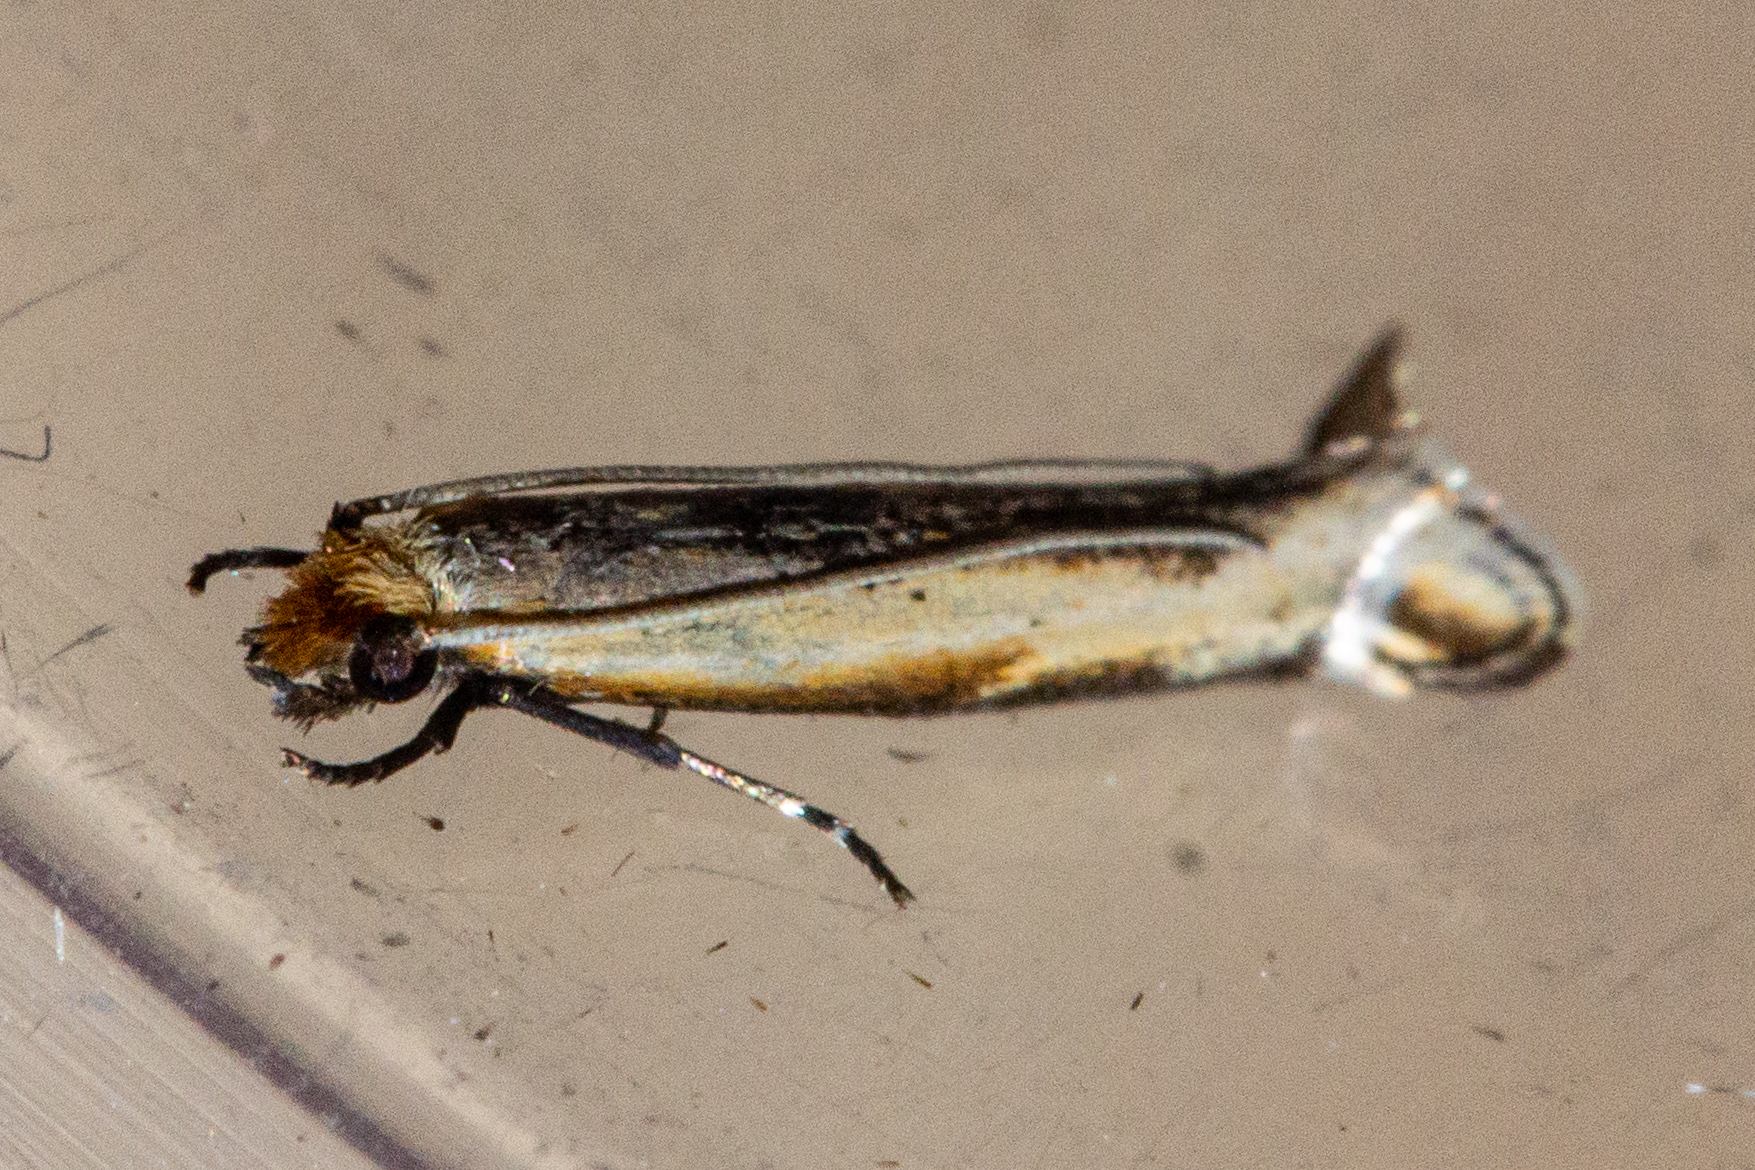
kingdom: Animalia
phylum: Arthropoda
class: Insecta
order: Lepidoptera
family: Tineidae
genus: Erechthias
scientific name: Erechthias charadrota
